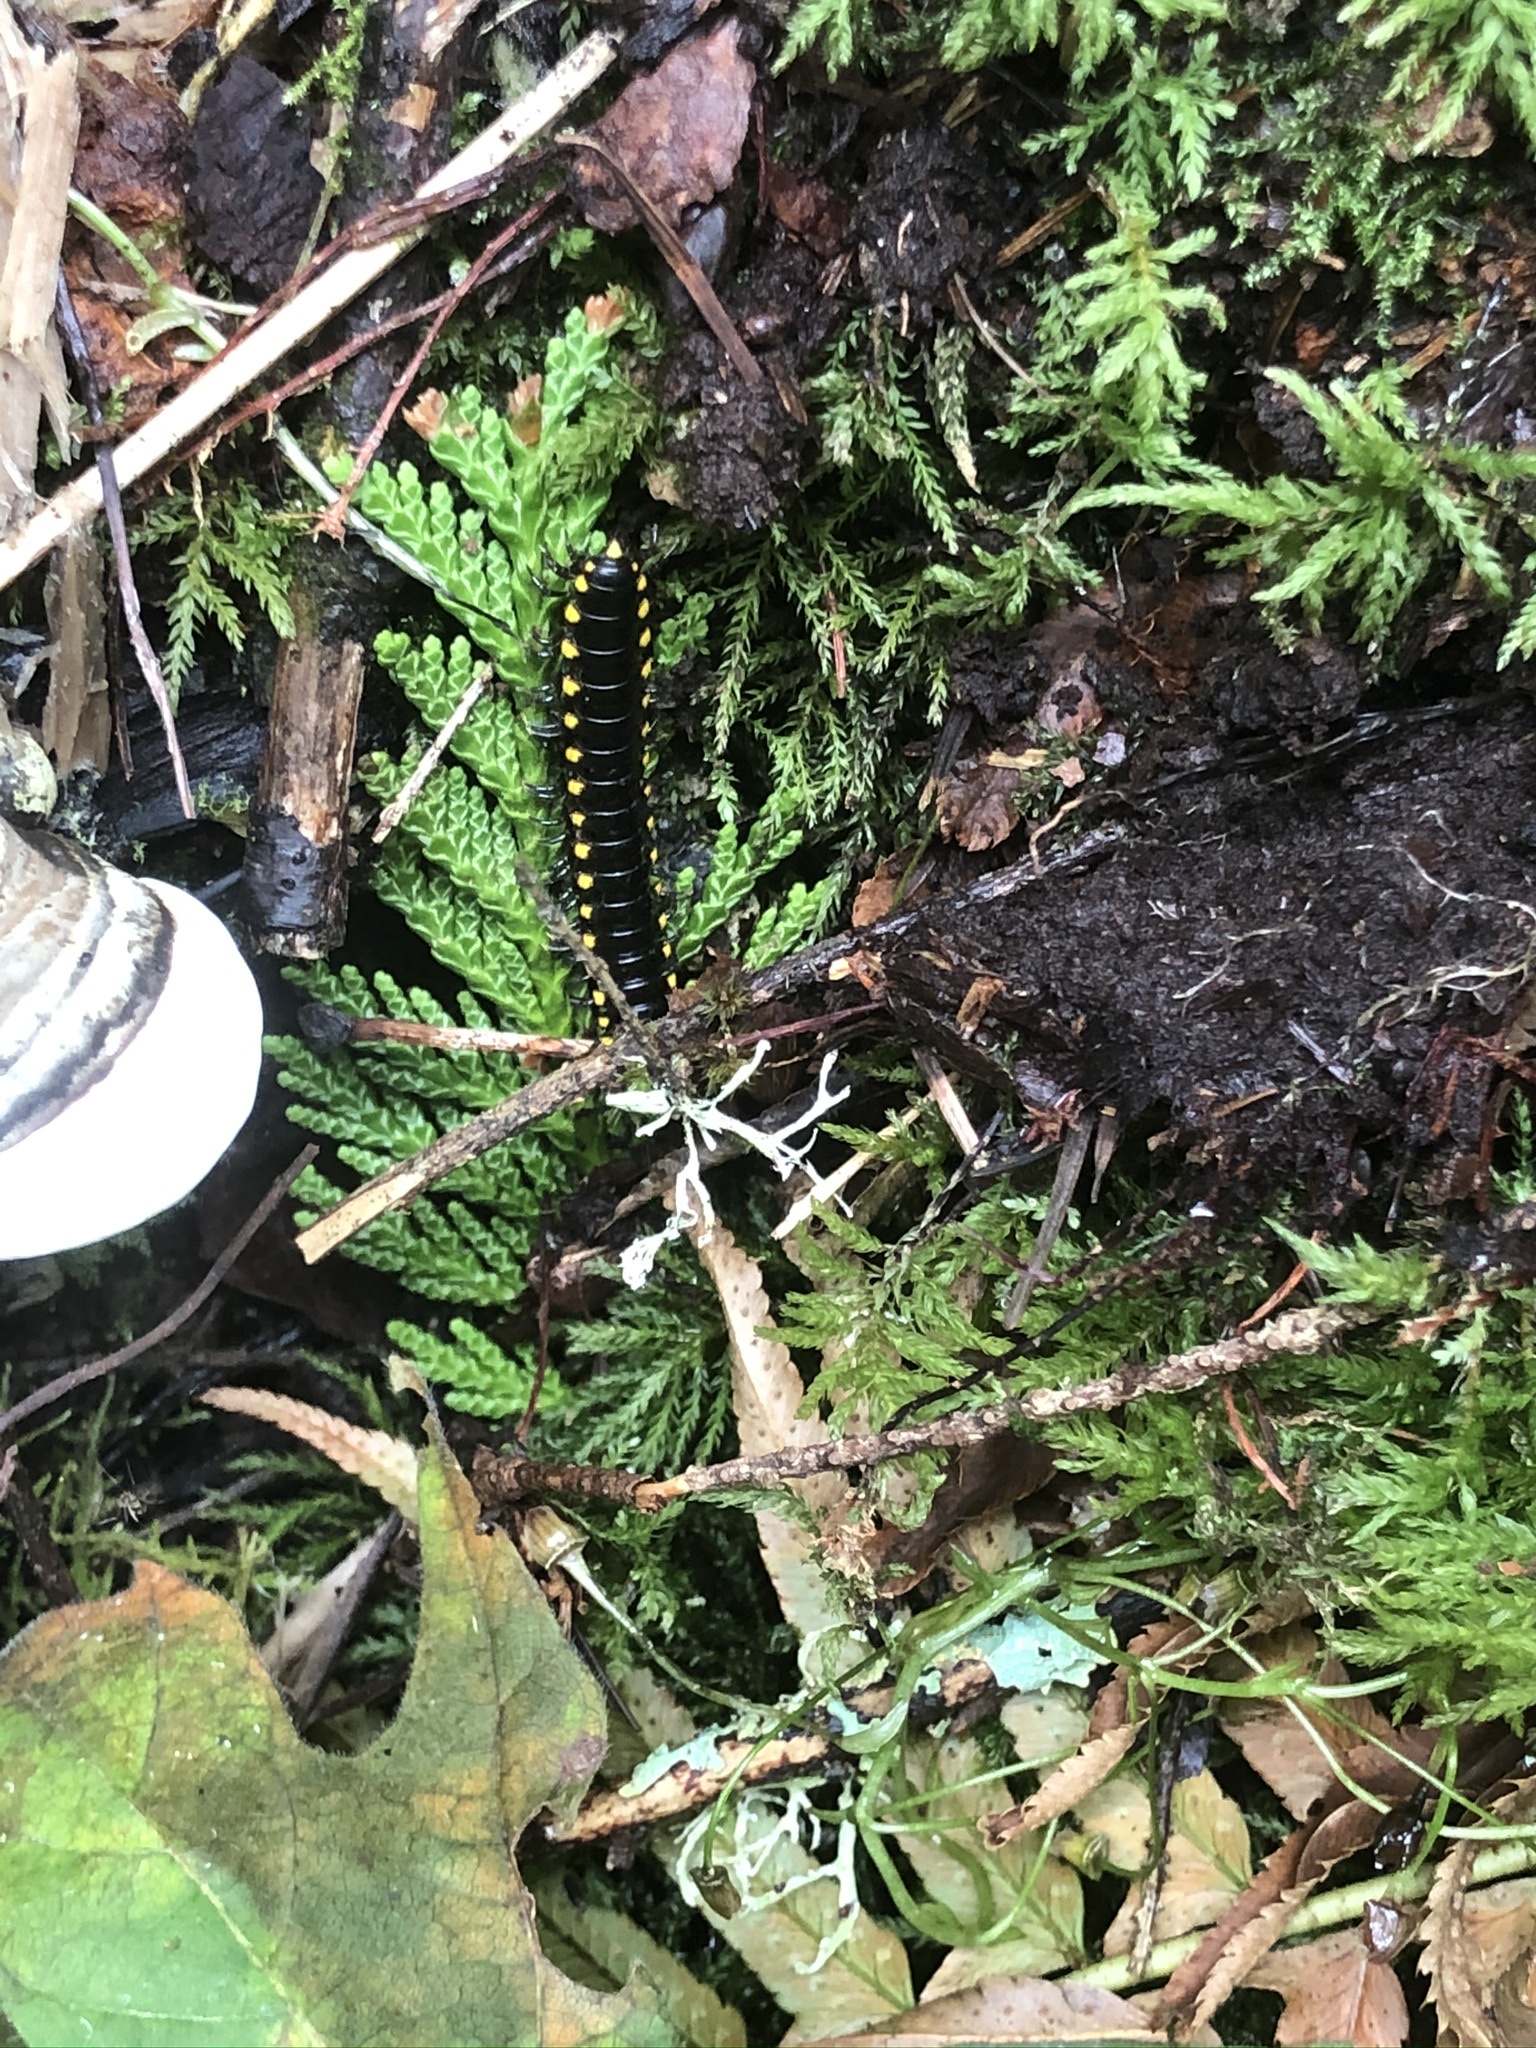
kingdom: Animalia
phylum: Arthropoda
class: Diplopoda
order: Polydesmida
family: Xystodesmidae
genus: Harpaphe
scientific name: Harpaphe haydeniana
